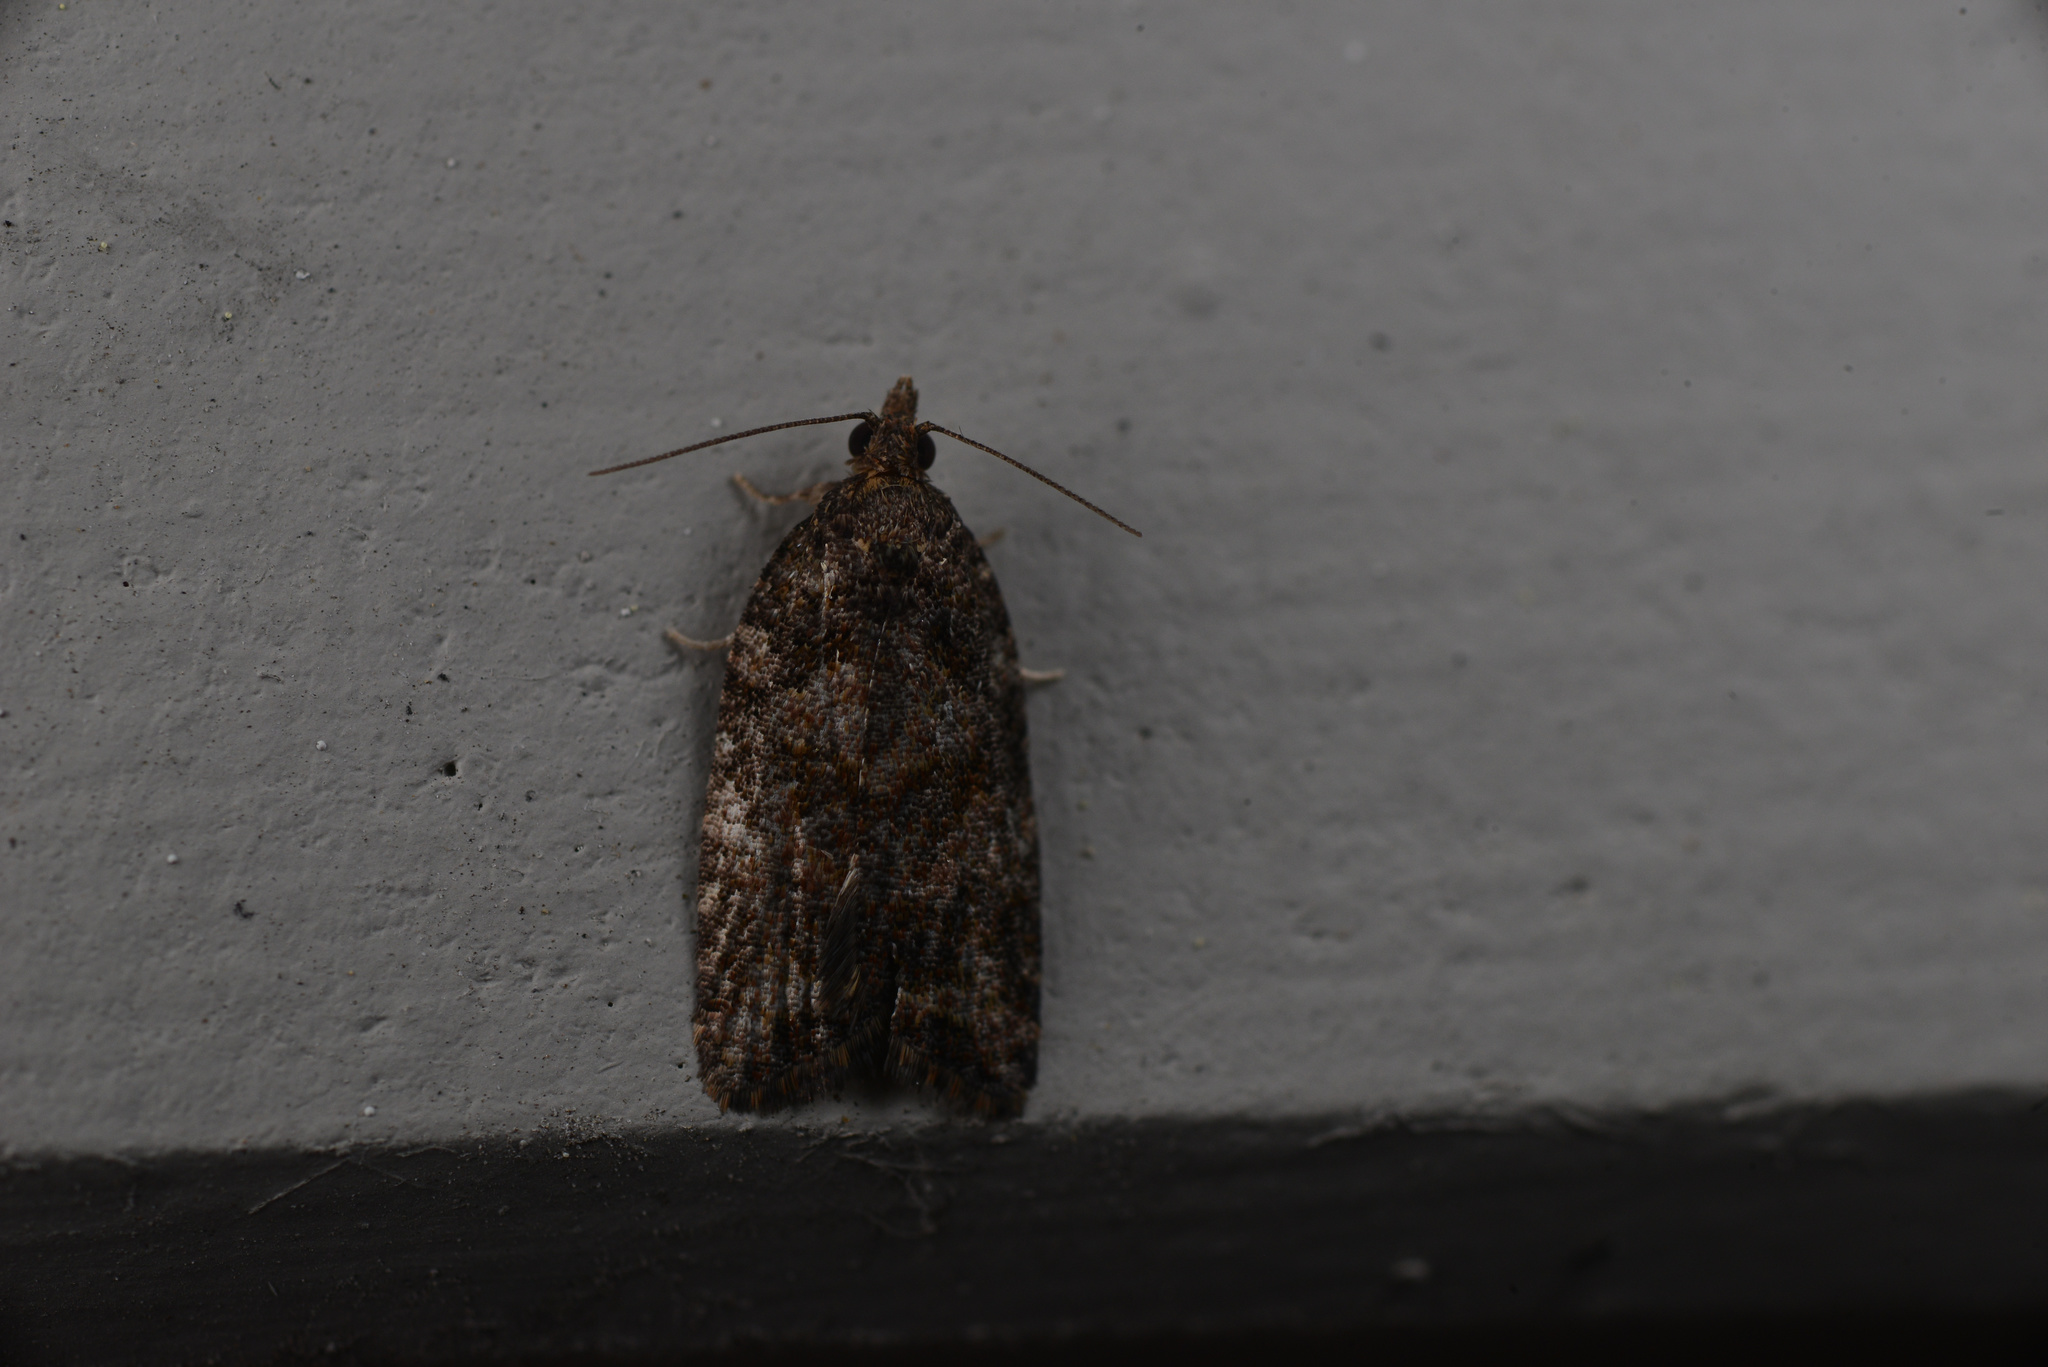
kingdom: Animalia
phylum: Arthropoda
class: Insecta
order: Lepidoptera
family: Tortricidae
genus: Capua
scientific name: Capua intractana
